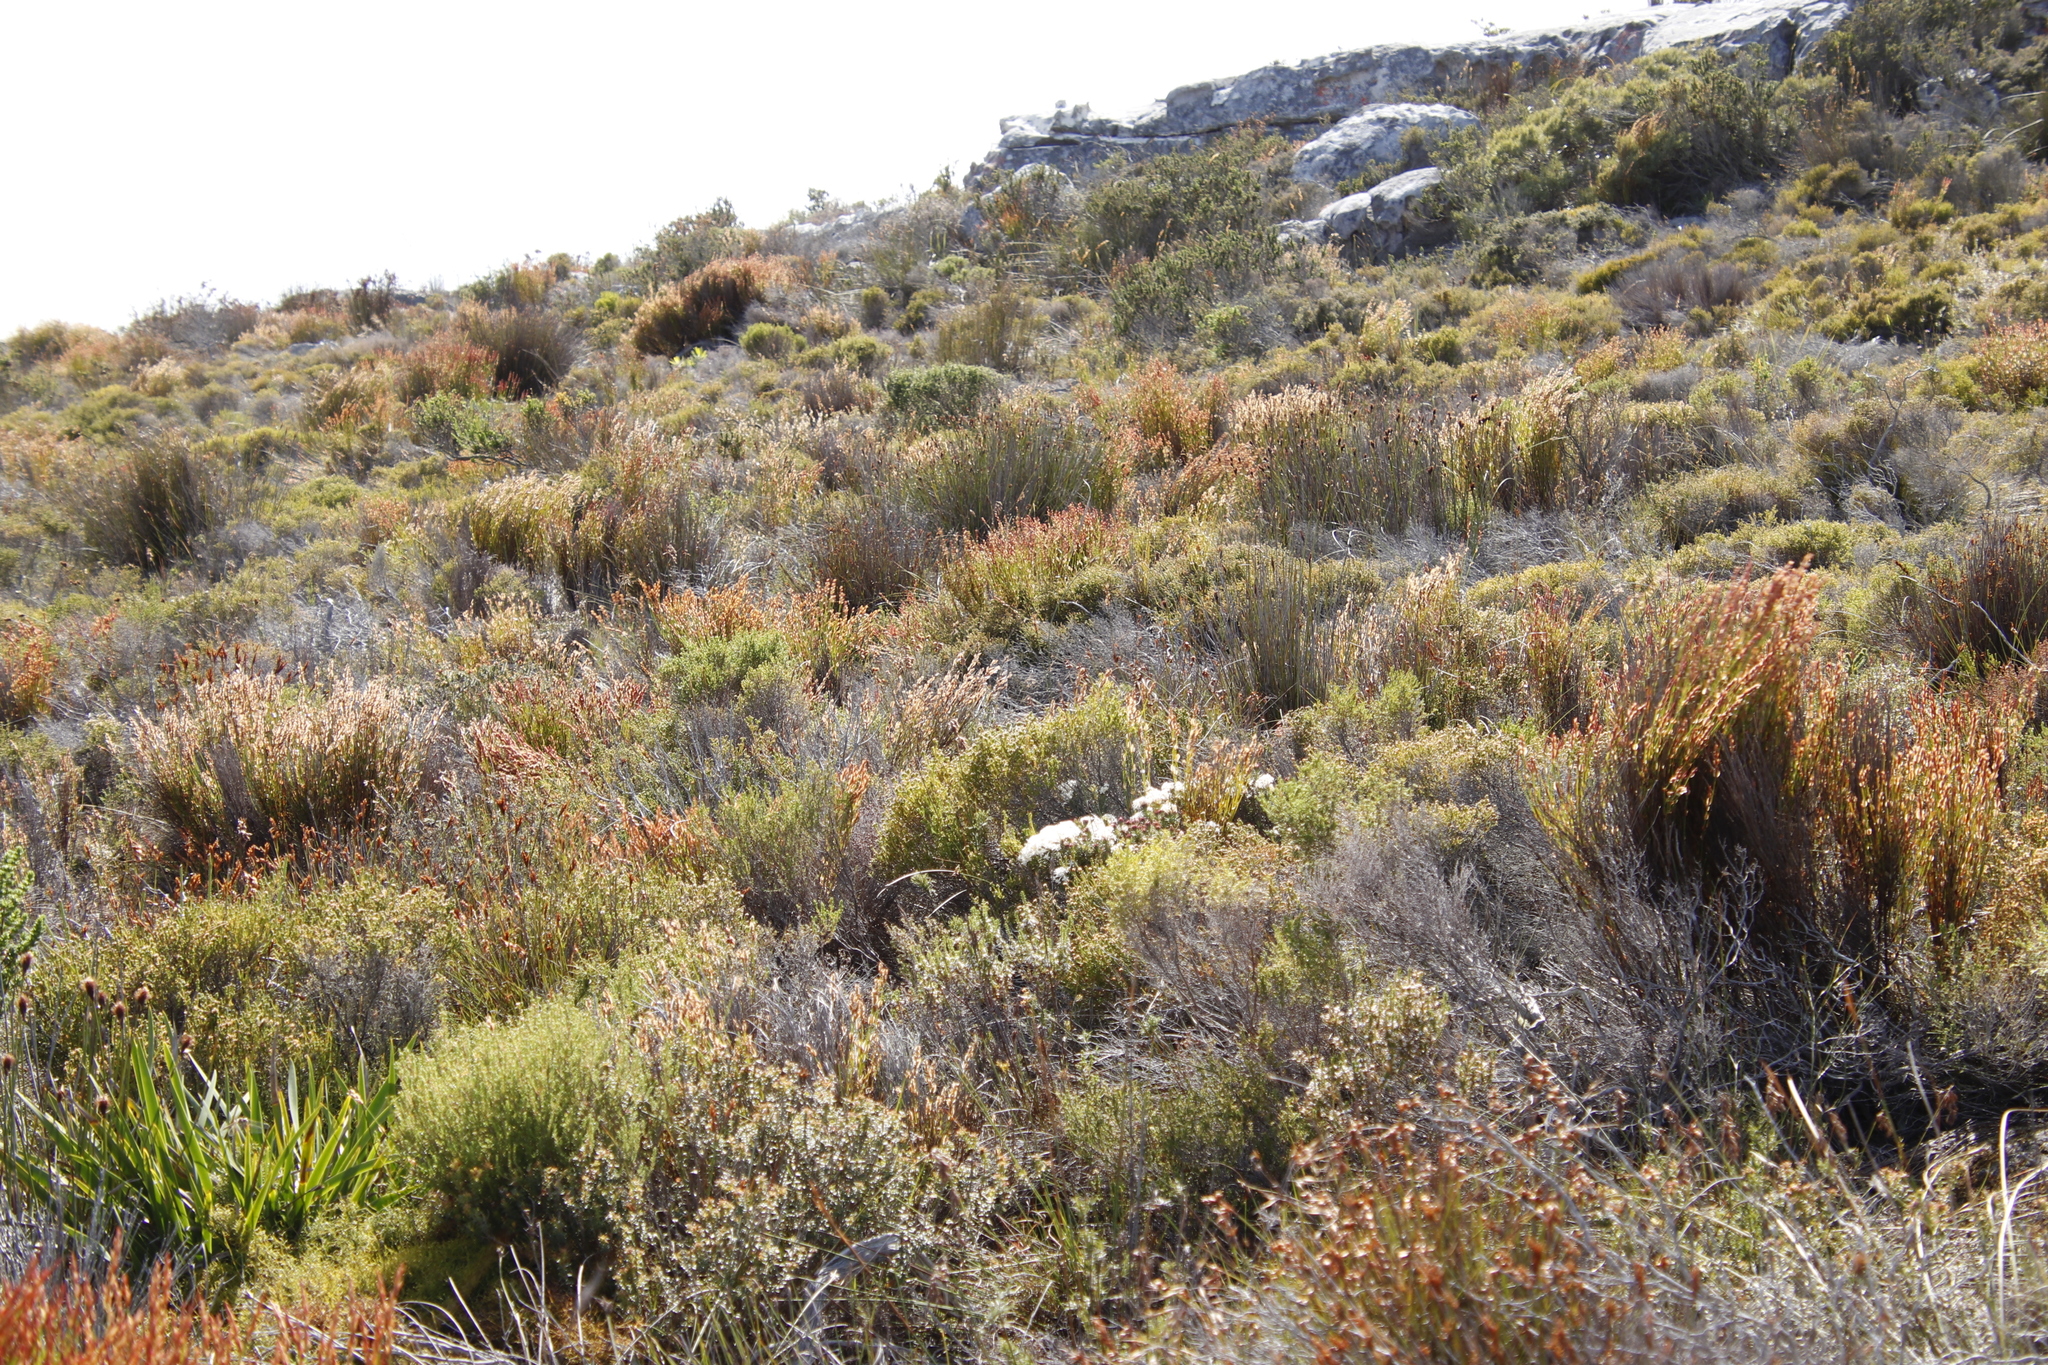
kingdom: Plantae
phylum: Tracheophyta
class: Magnoliopsida
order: Malvales
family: Thymelaeaceae
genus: Gnidia
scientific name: Gnidia pinifolia
